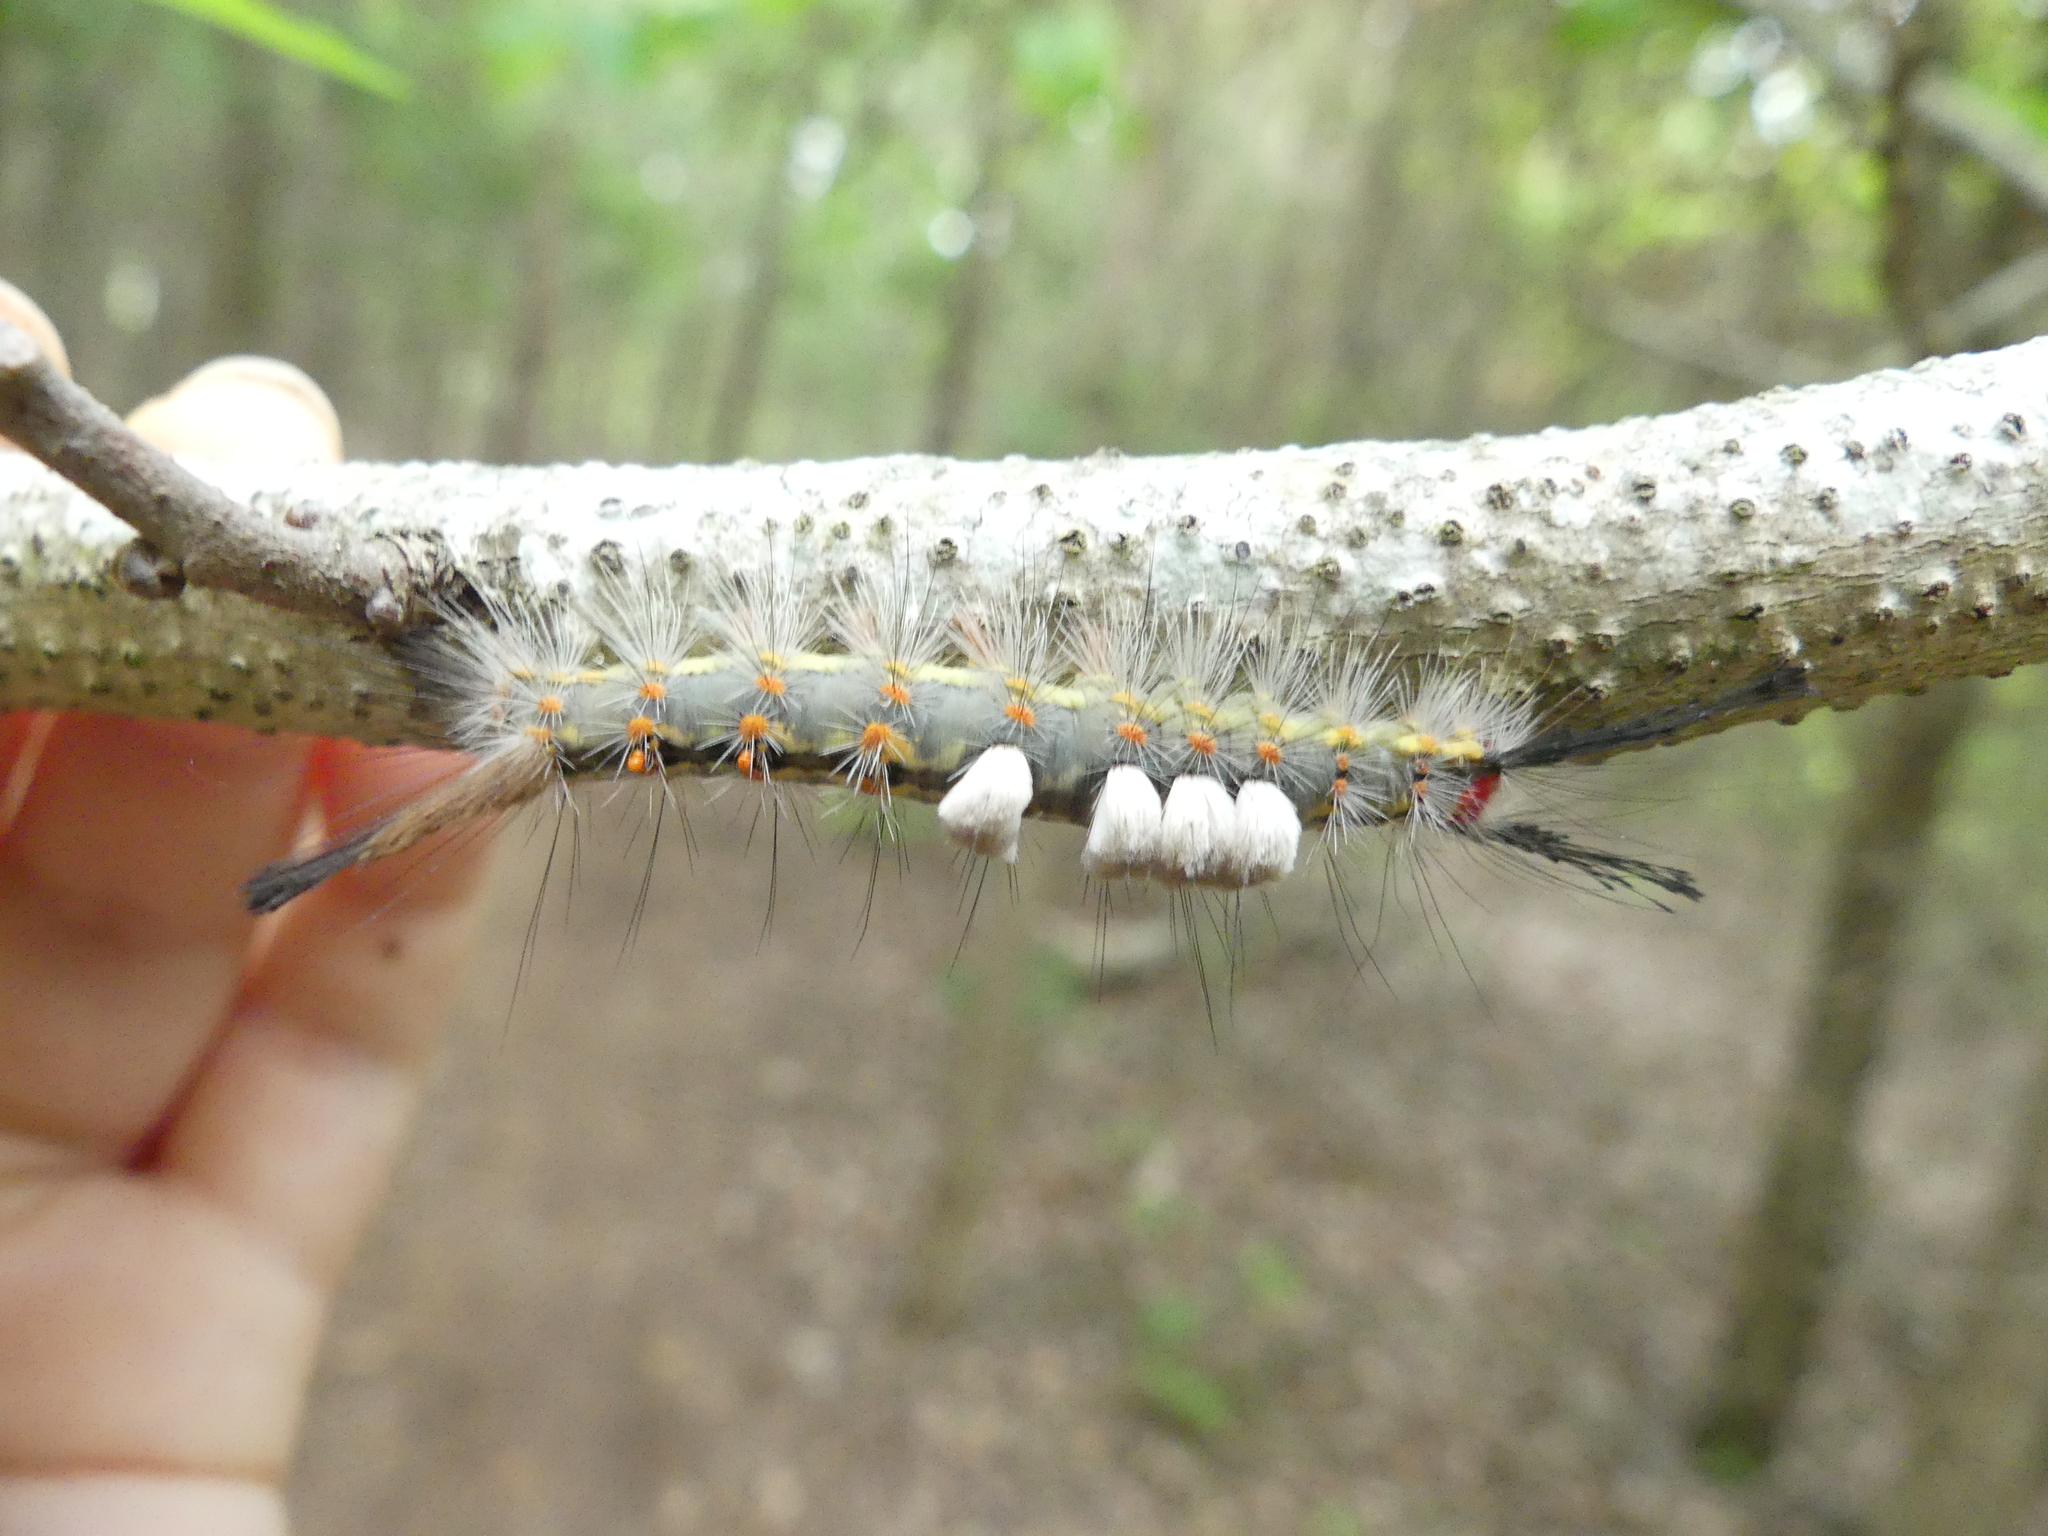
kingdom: Animalia
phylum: Arthropoda
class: Insecta
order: Lepidoptera
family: Erebidae
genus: Orgyia
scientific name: Orgyia detrita
